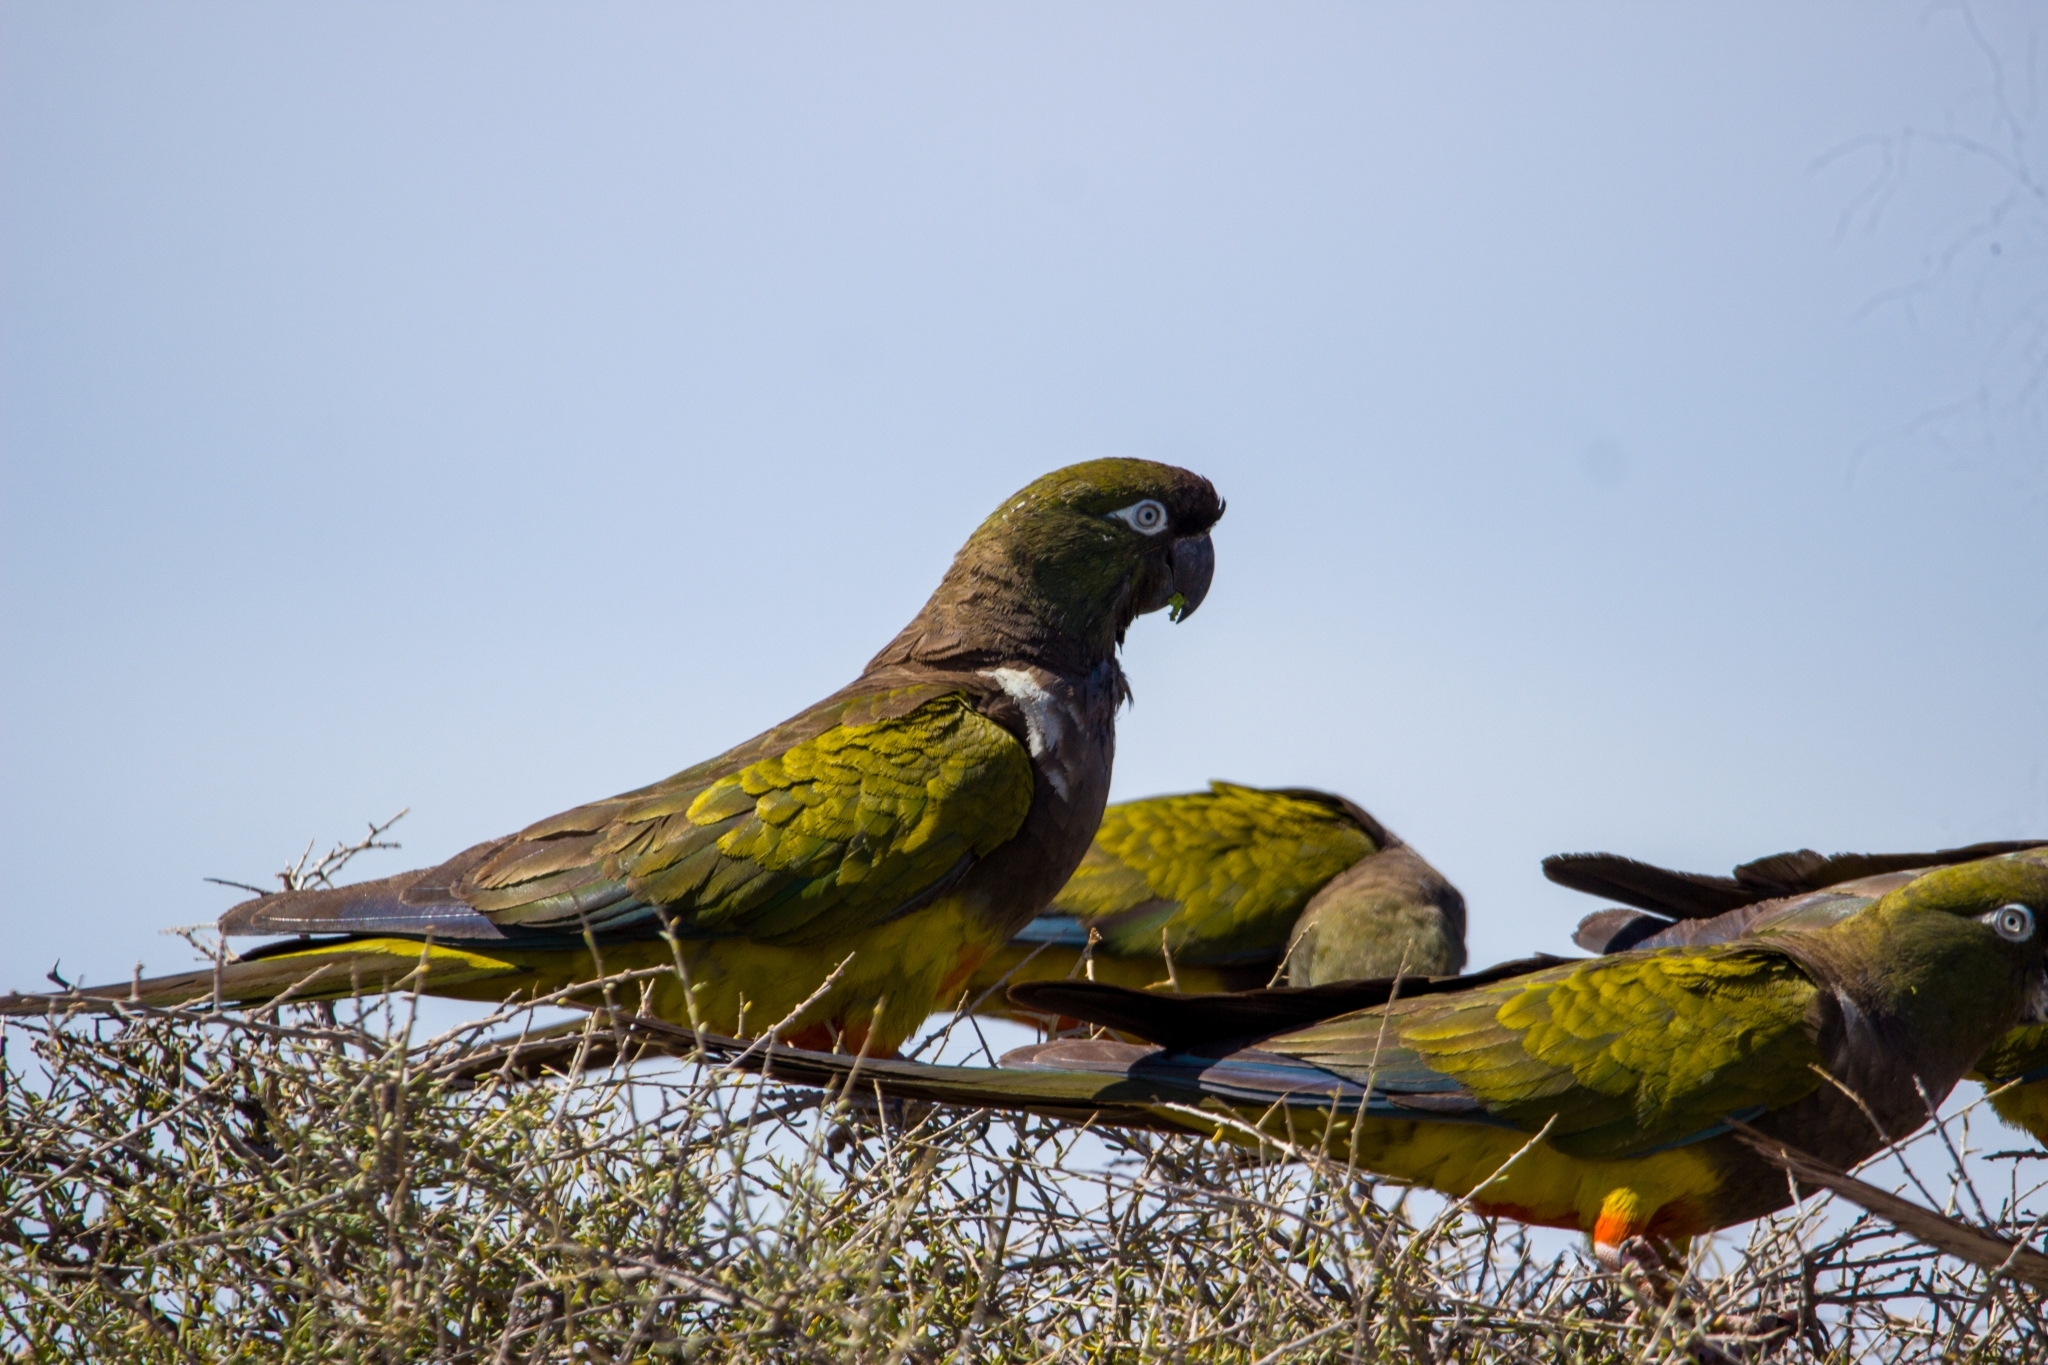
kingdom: Animalia
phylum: Chordata
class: Aves
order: Psittaciformes
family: Psittacidae
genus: Cyanoliseus
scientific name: Cyanoliseus patagonus
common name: Burrowing parrot
